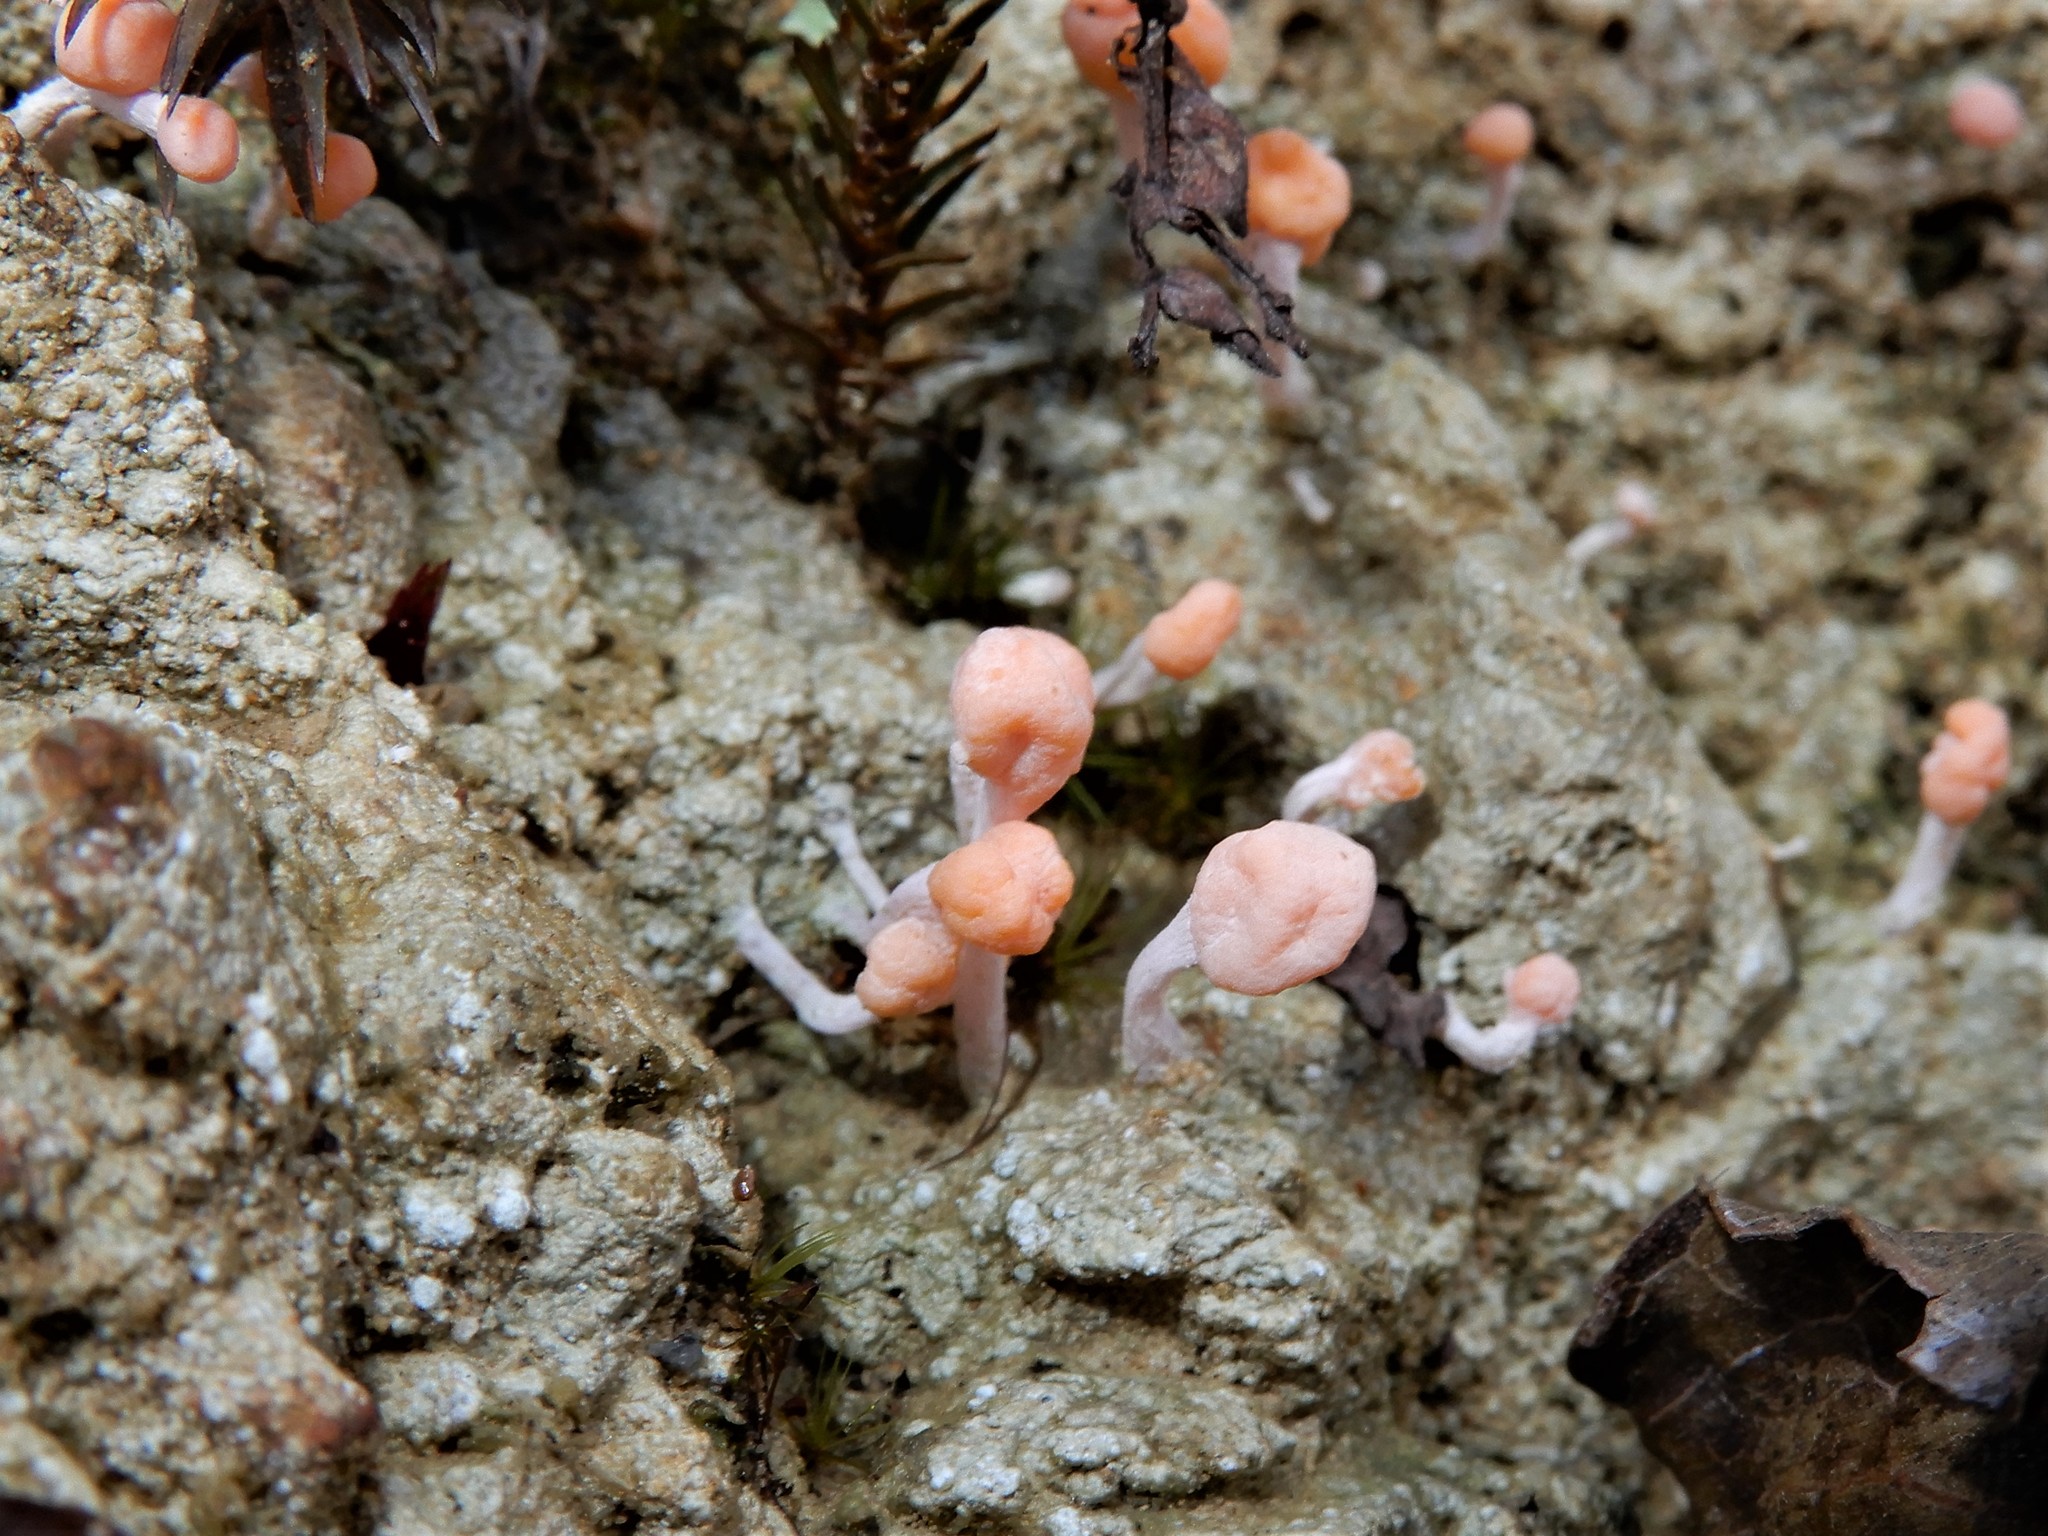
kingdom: Fungi
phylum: Ascomycota
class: Lecanoromycetes
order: Pertusariales
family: Icmadophilaceae
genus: Dibaeis
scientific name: Dibaeis arcuata
